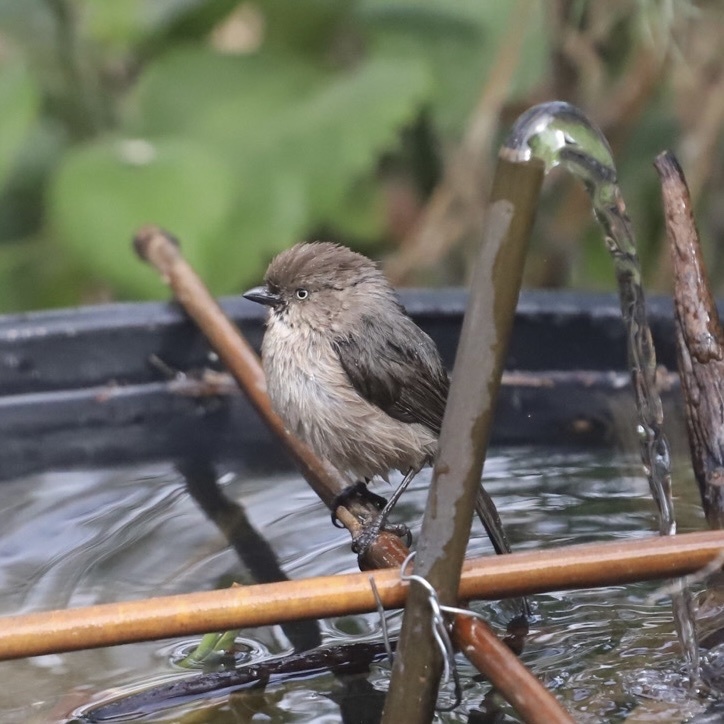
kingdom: Animalia
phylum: Chordata
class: Aves
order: Passeriformes
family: Aegithalidae
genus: Psaltriparus
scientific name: Psaltriparus minimus
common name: American bushtit
